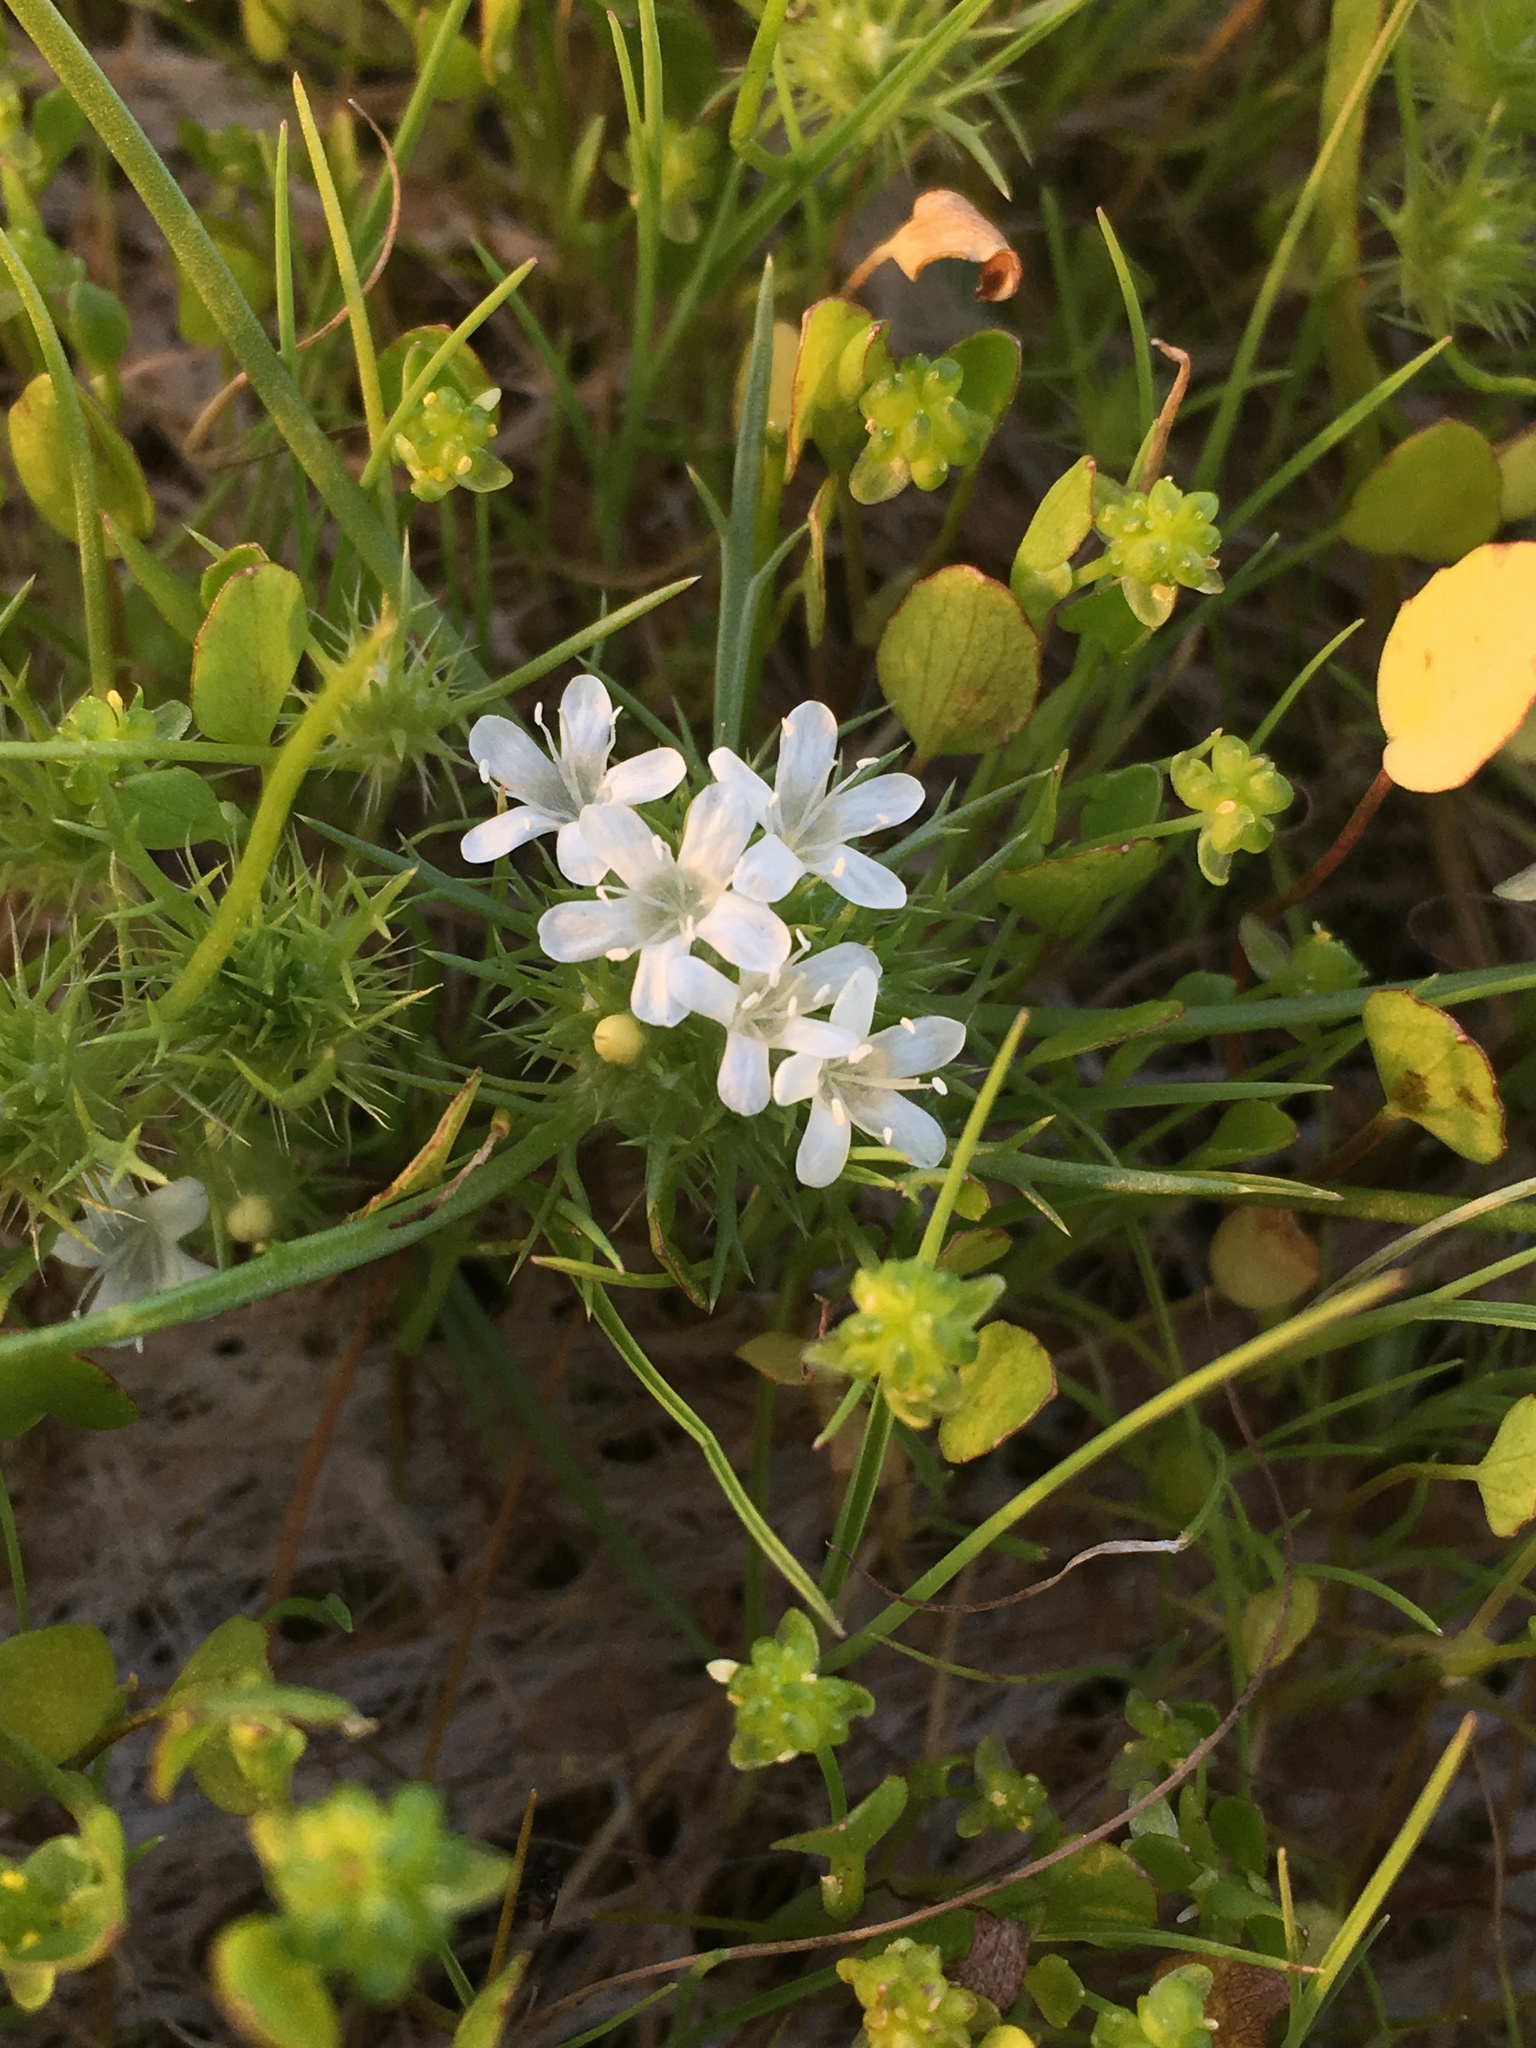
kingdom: Plantae
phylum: Tracheophyta
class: Magnoliopsida
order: Ericales
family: Polemoniaceae
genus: Navarretia
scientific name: Navarretia leucocephala
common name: White-flowered navarretia
